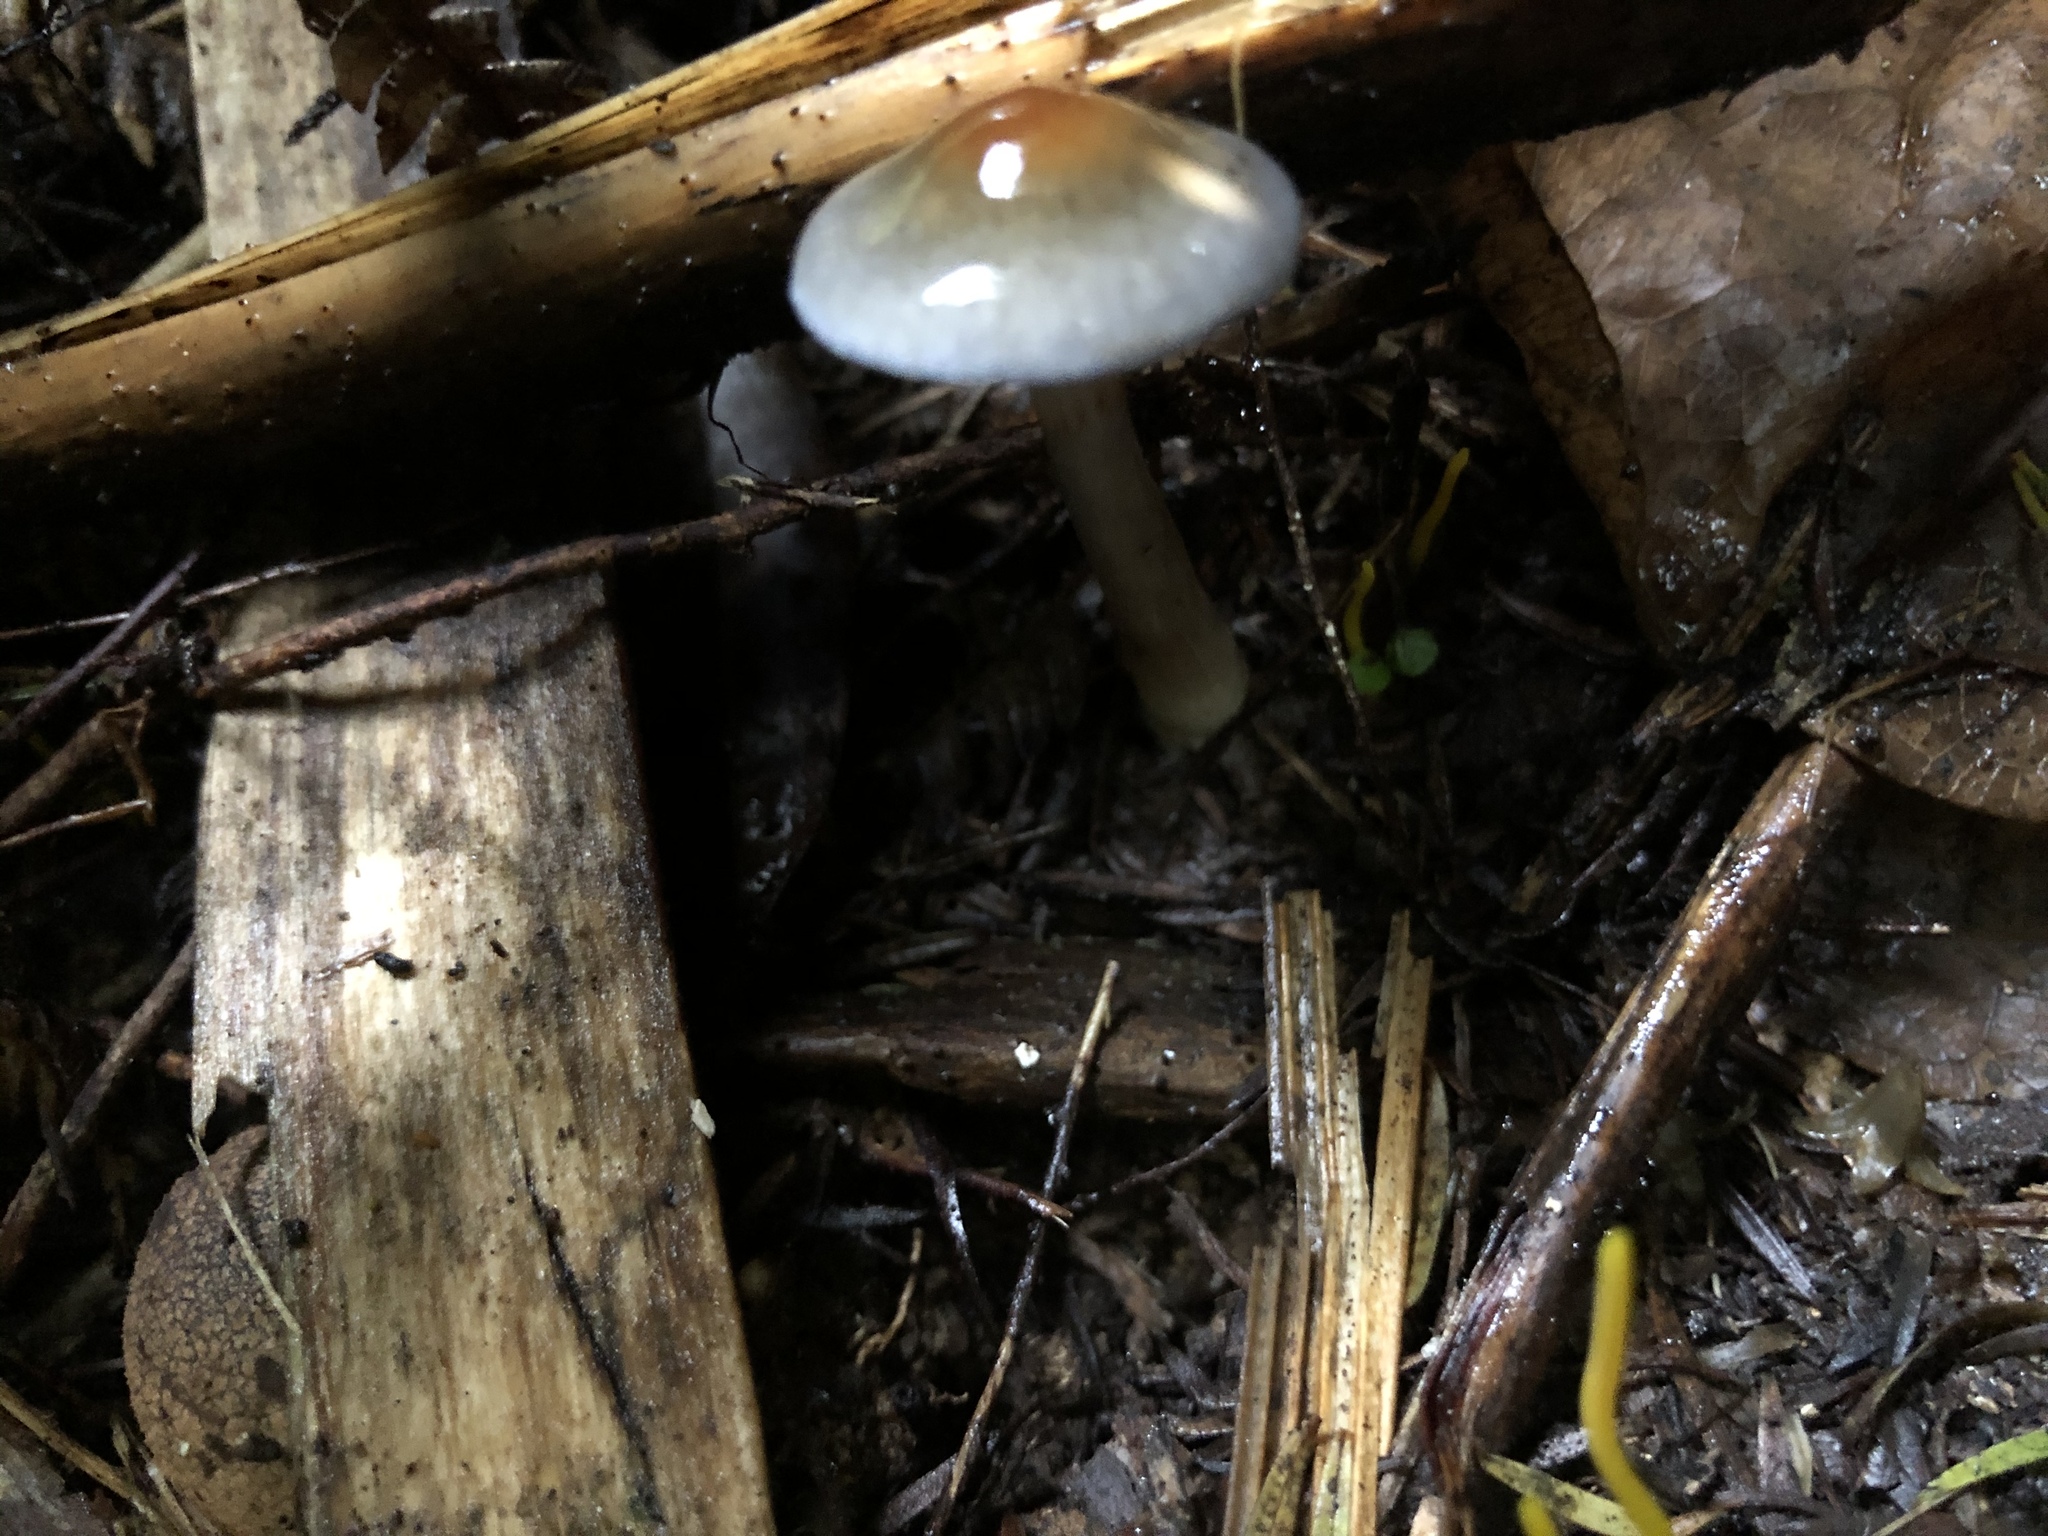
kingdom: Fungi
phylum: Basidiomycota
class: Agaricomycetes
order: Agaricales
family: Cortinariaceae
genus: Cortinarius
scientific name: Cortinarius rotundisporus
